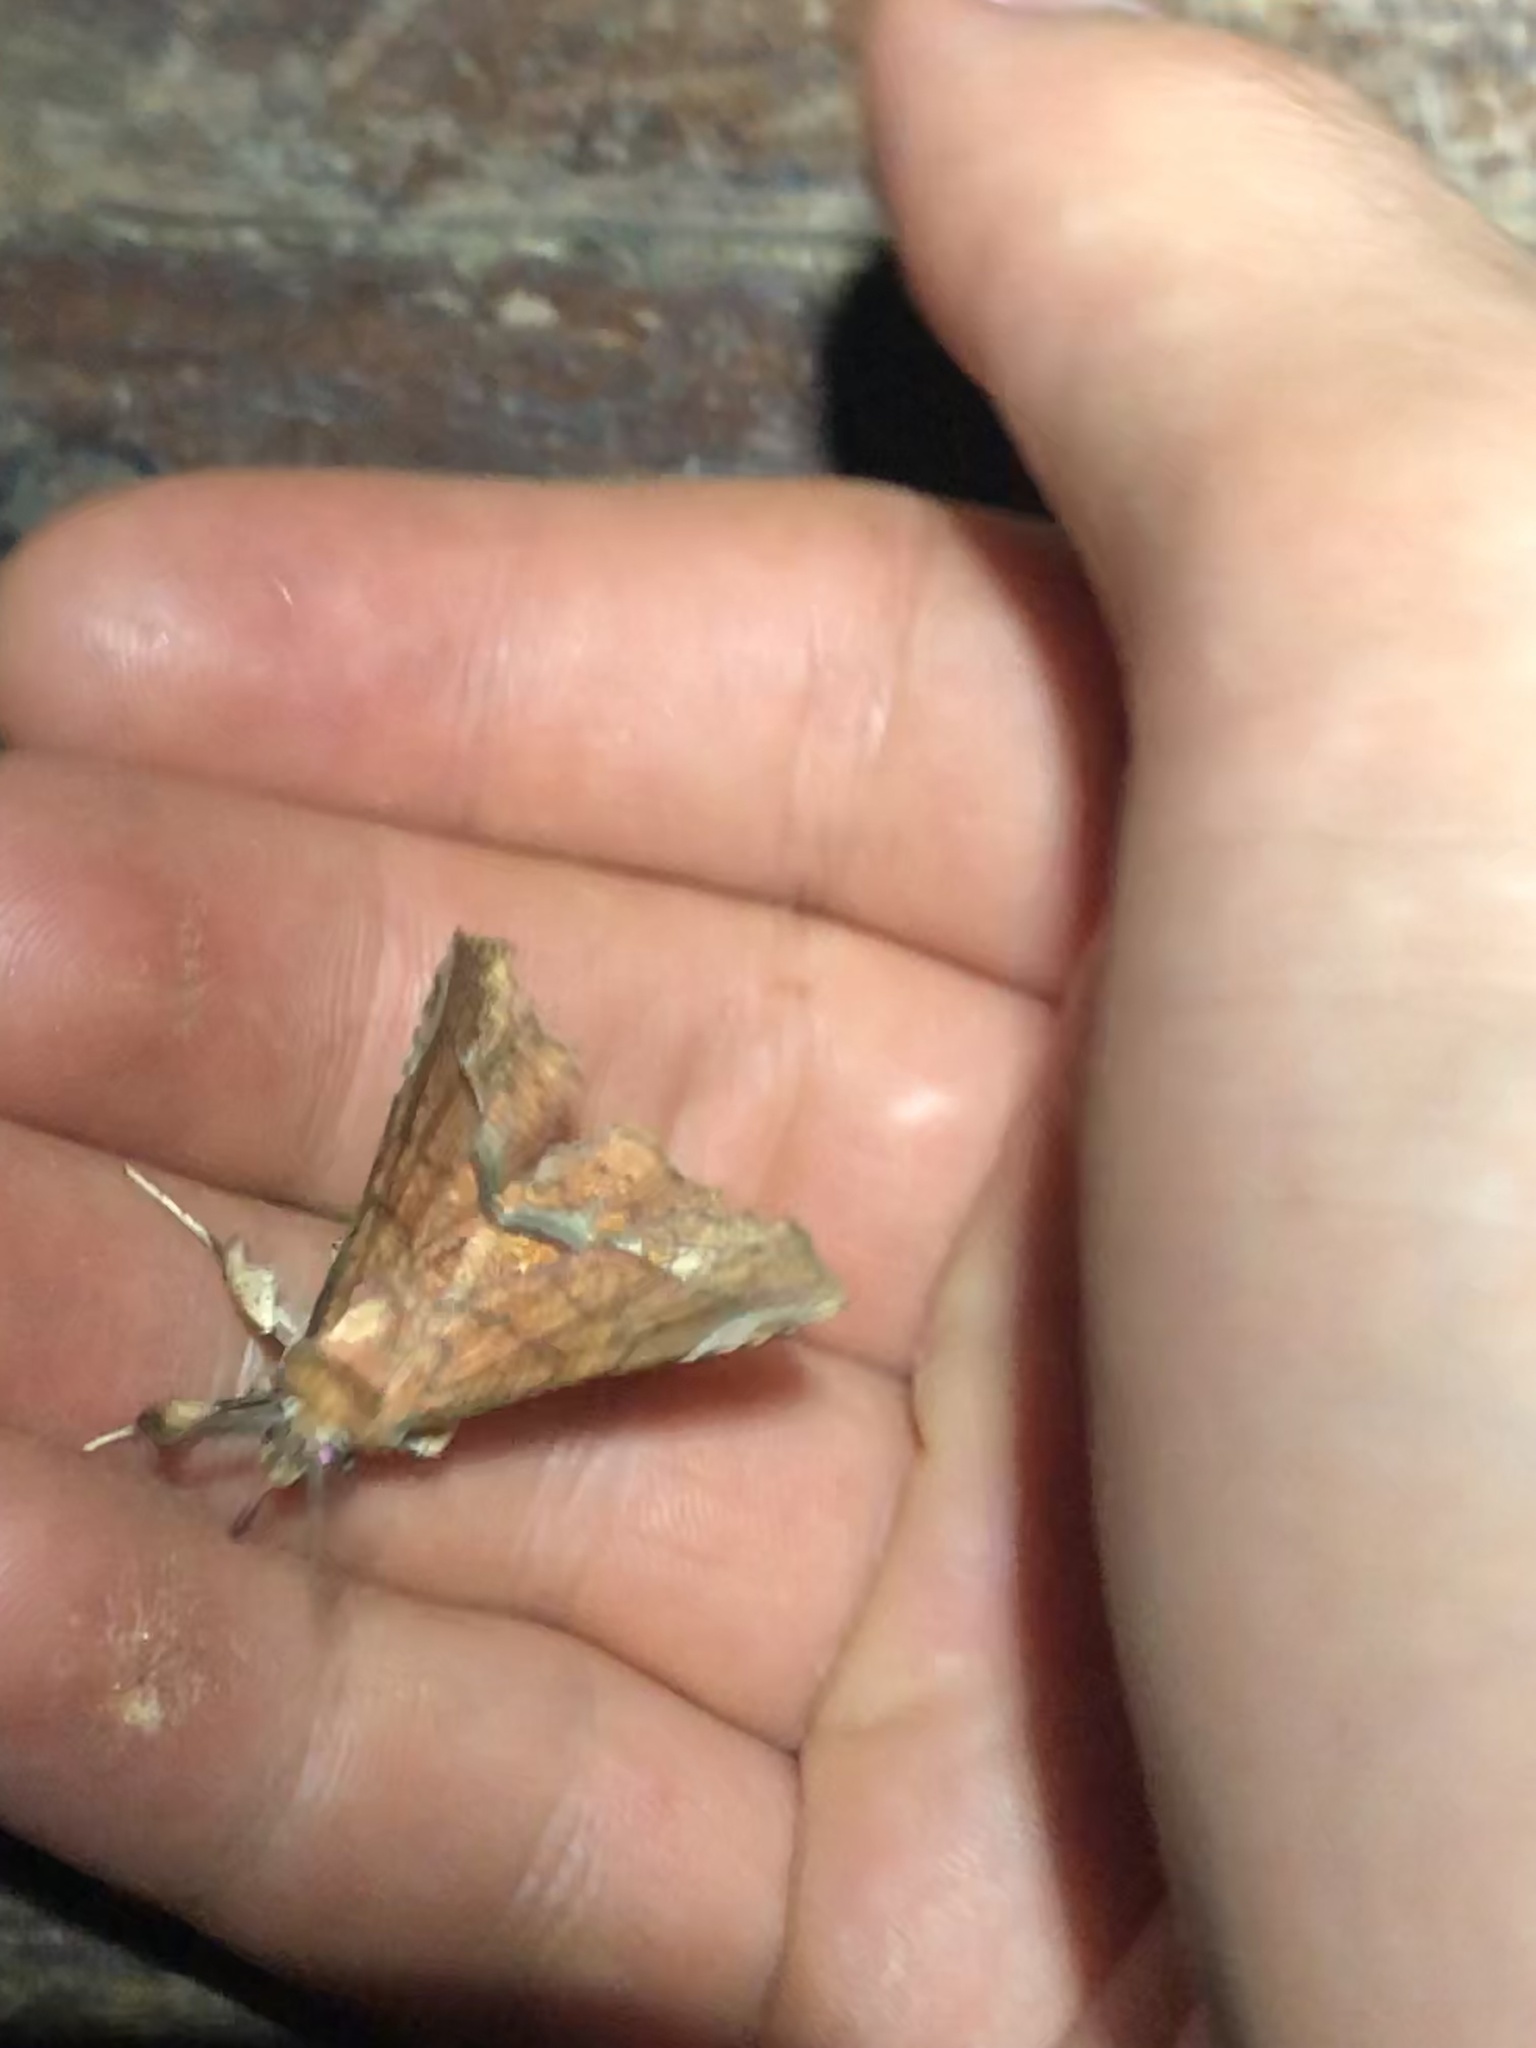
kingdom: Animalia
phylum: Arthropoda
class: Insecta
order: Lepidoptera
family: Erebidae
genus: Syllectra
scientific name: Syllectra erycata
